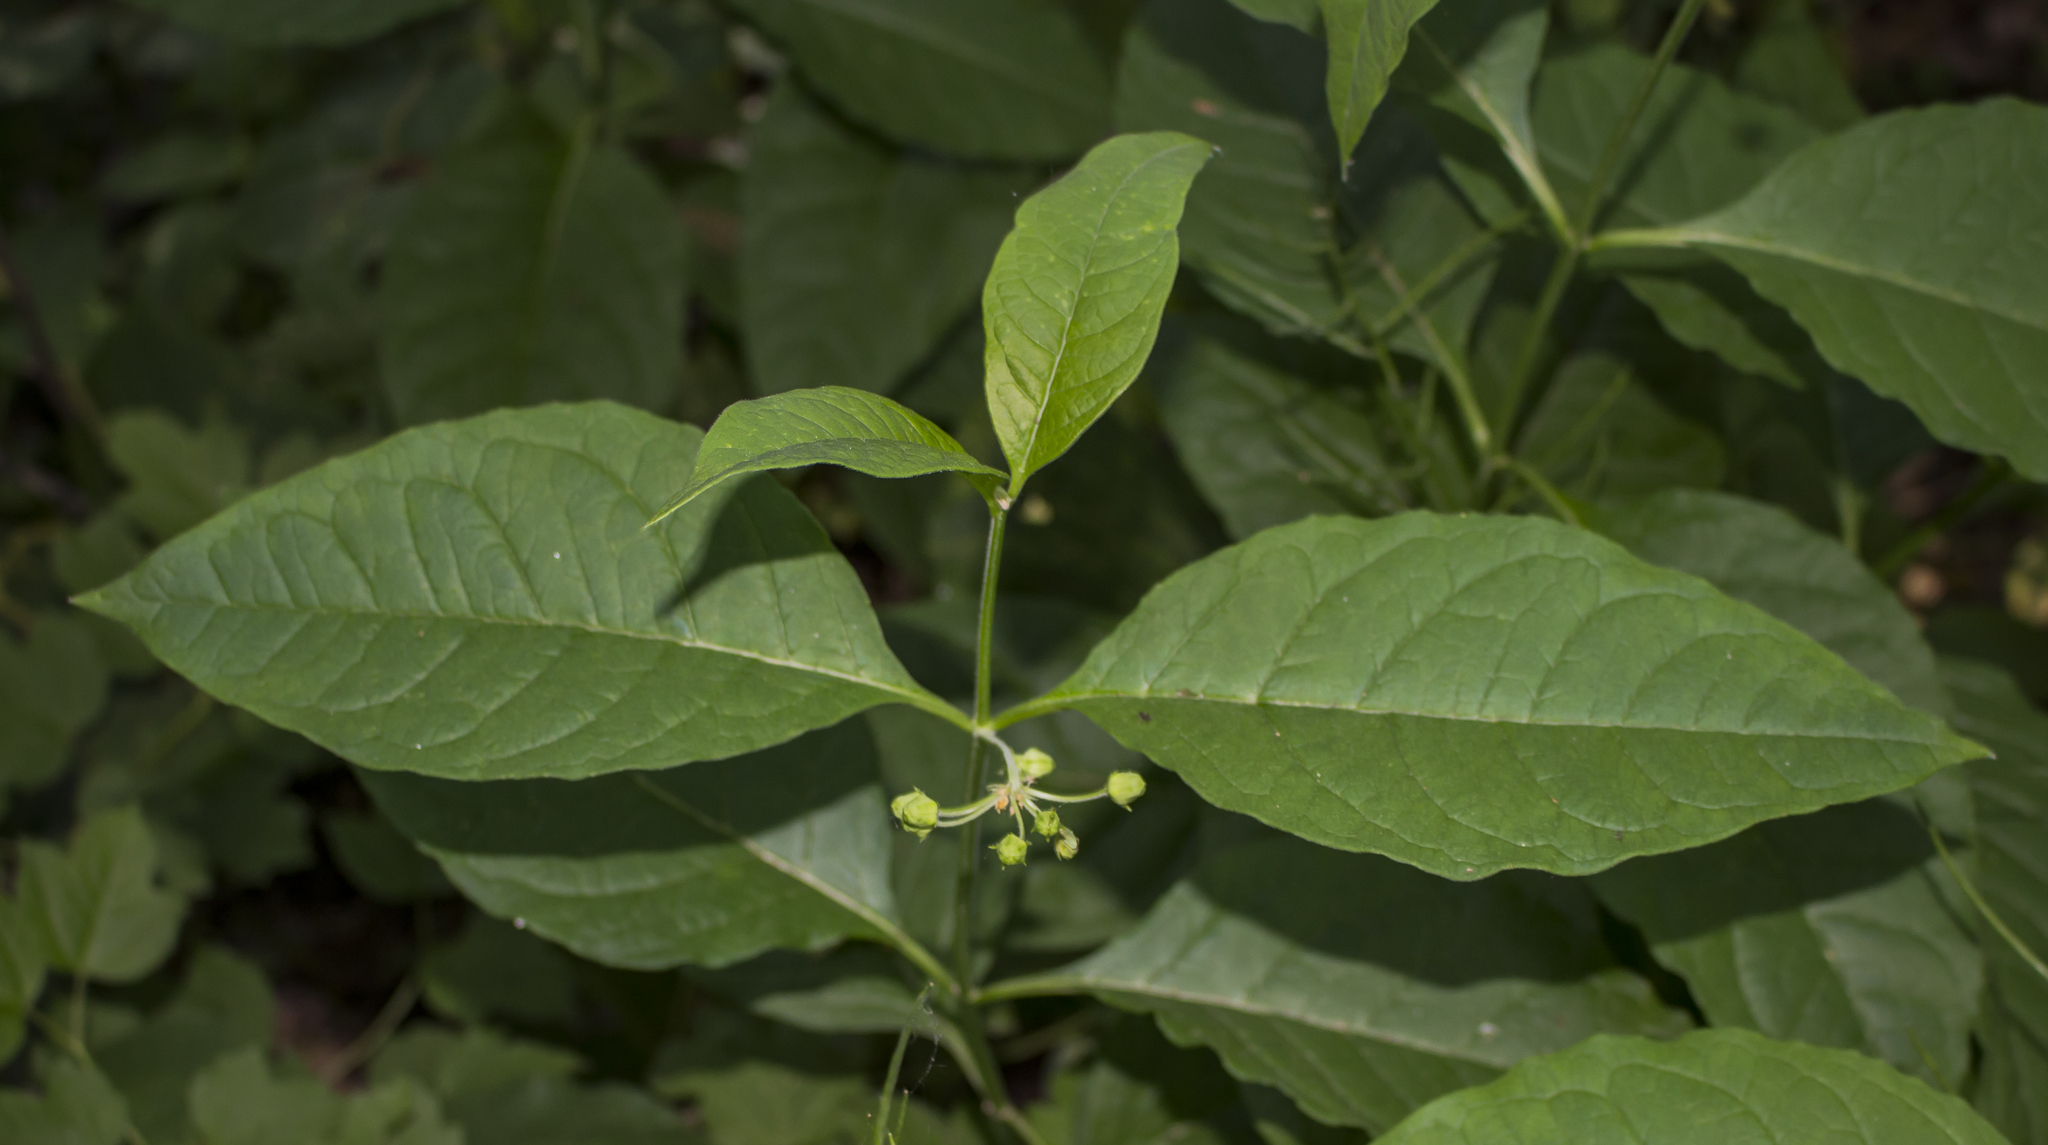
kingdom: Plantae
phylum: Tracheophyta
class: Magnoliopsida
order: Gentianales
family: Apocynaceae
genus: Asclepias
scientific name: Asclepias exaltata
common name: Poke milkweed
